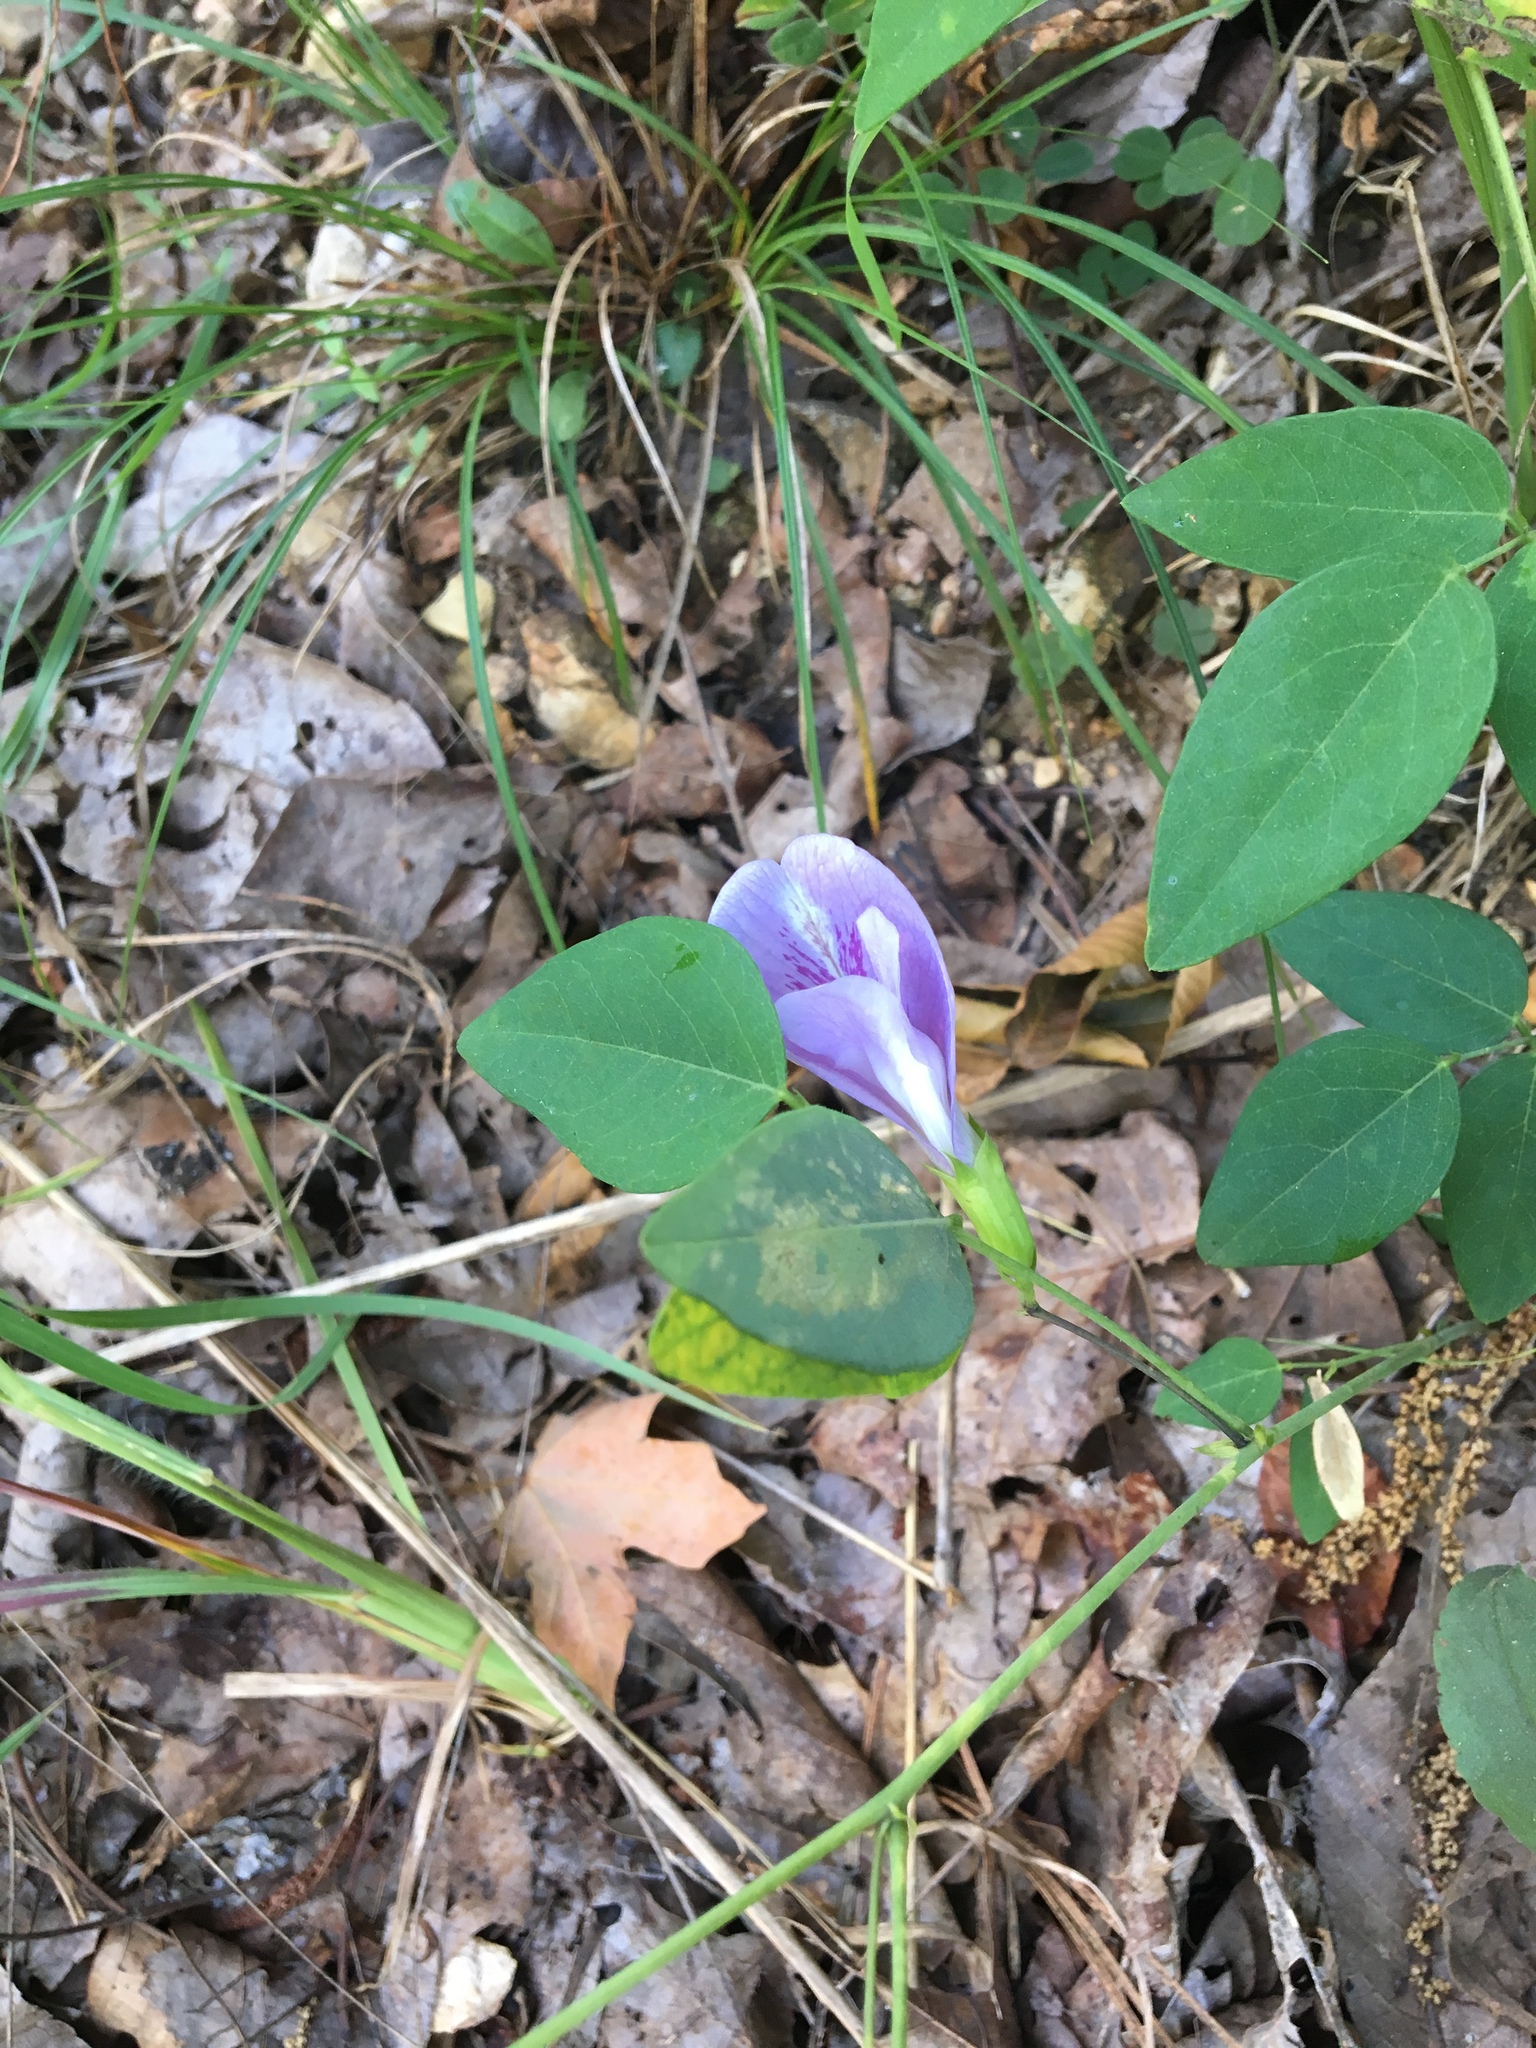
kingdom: Plantae
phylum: Tracheophyta
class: Magnoliopsida
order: Fabales
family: Fabaceae
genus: Clitoria
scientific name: Clitoria mariana
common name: Butterfly-pea
